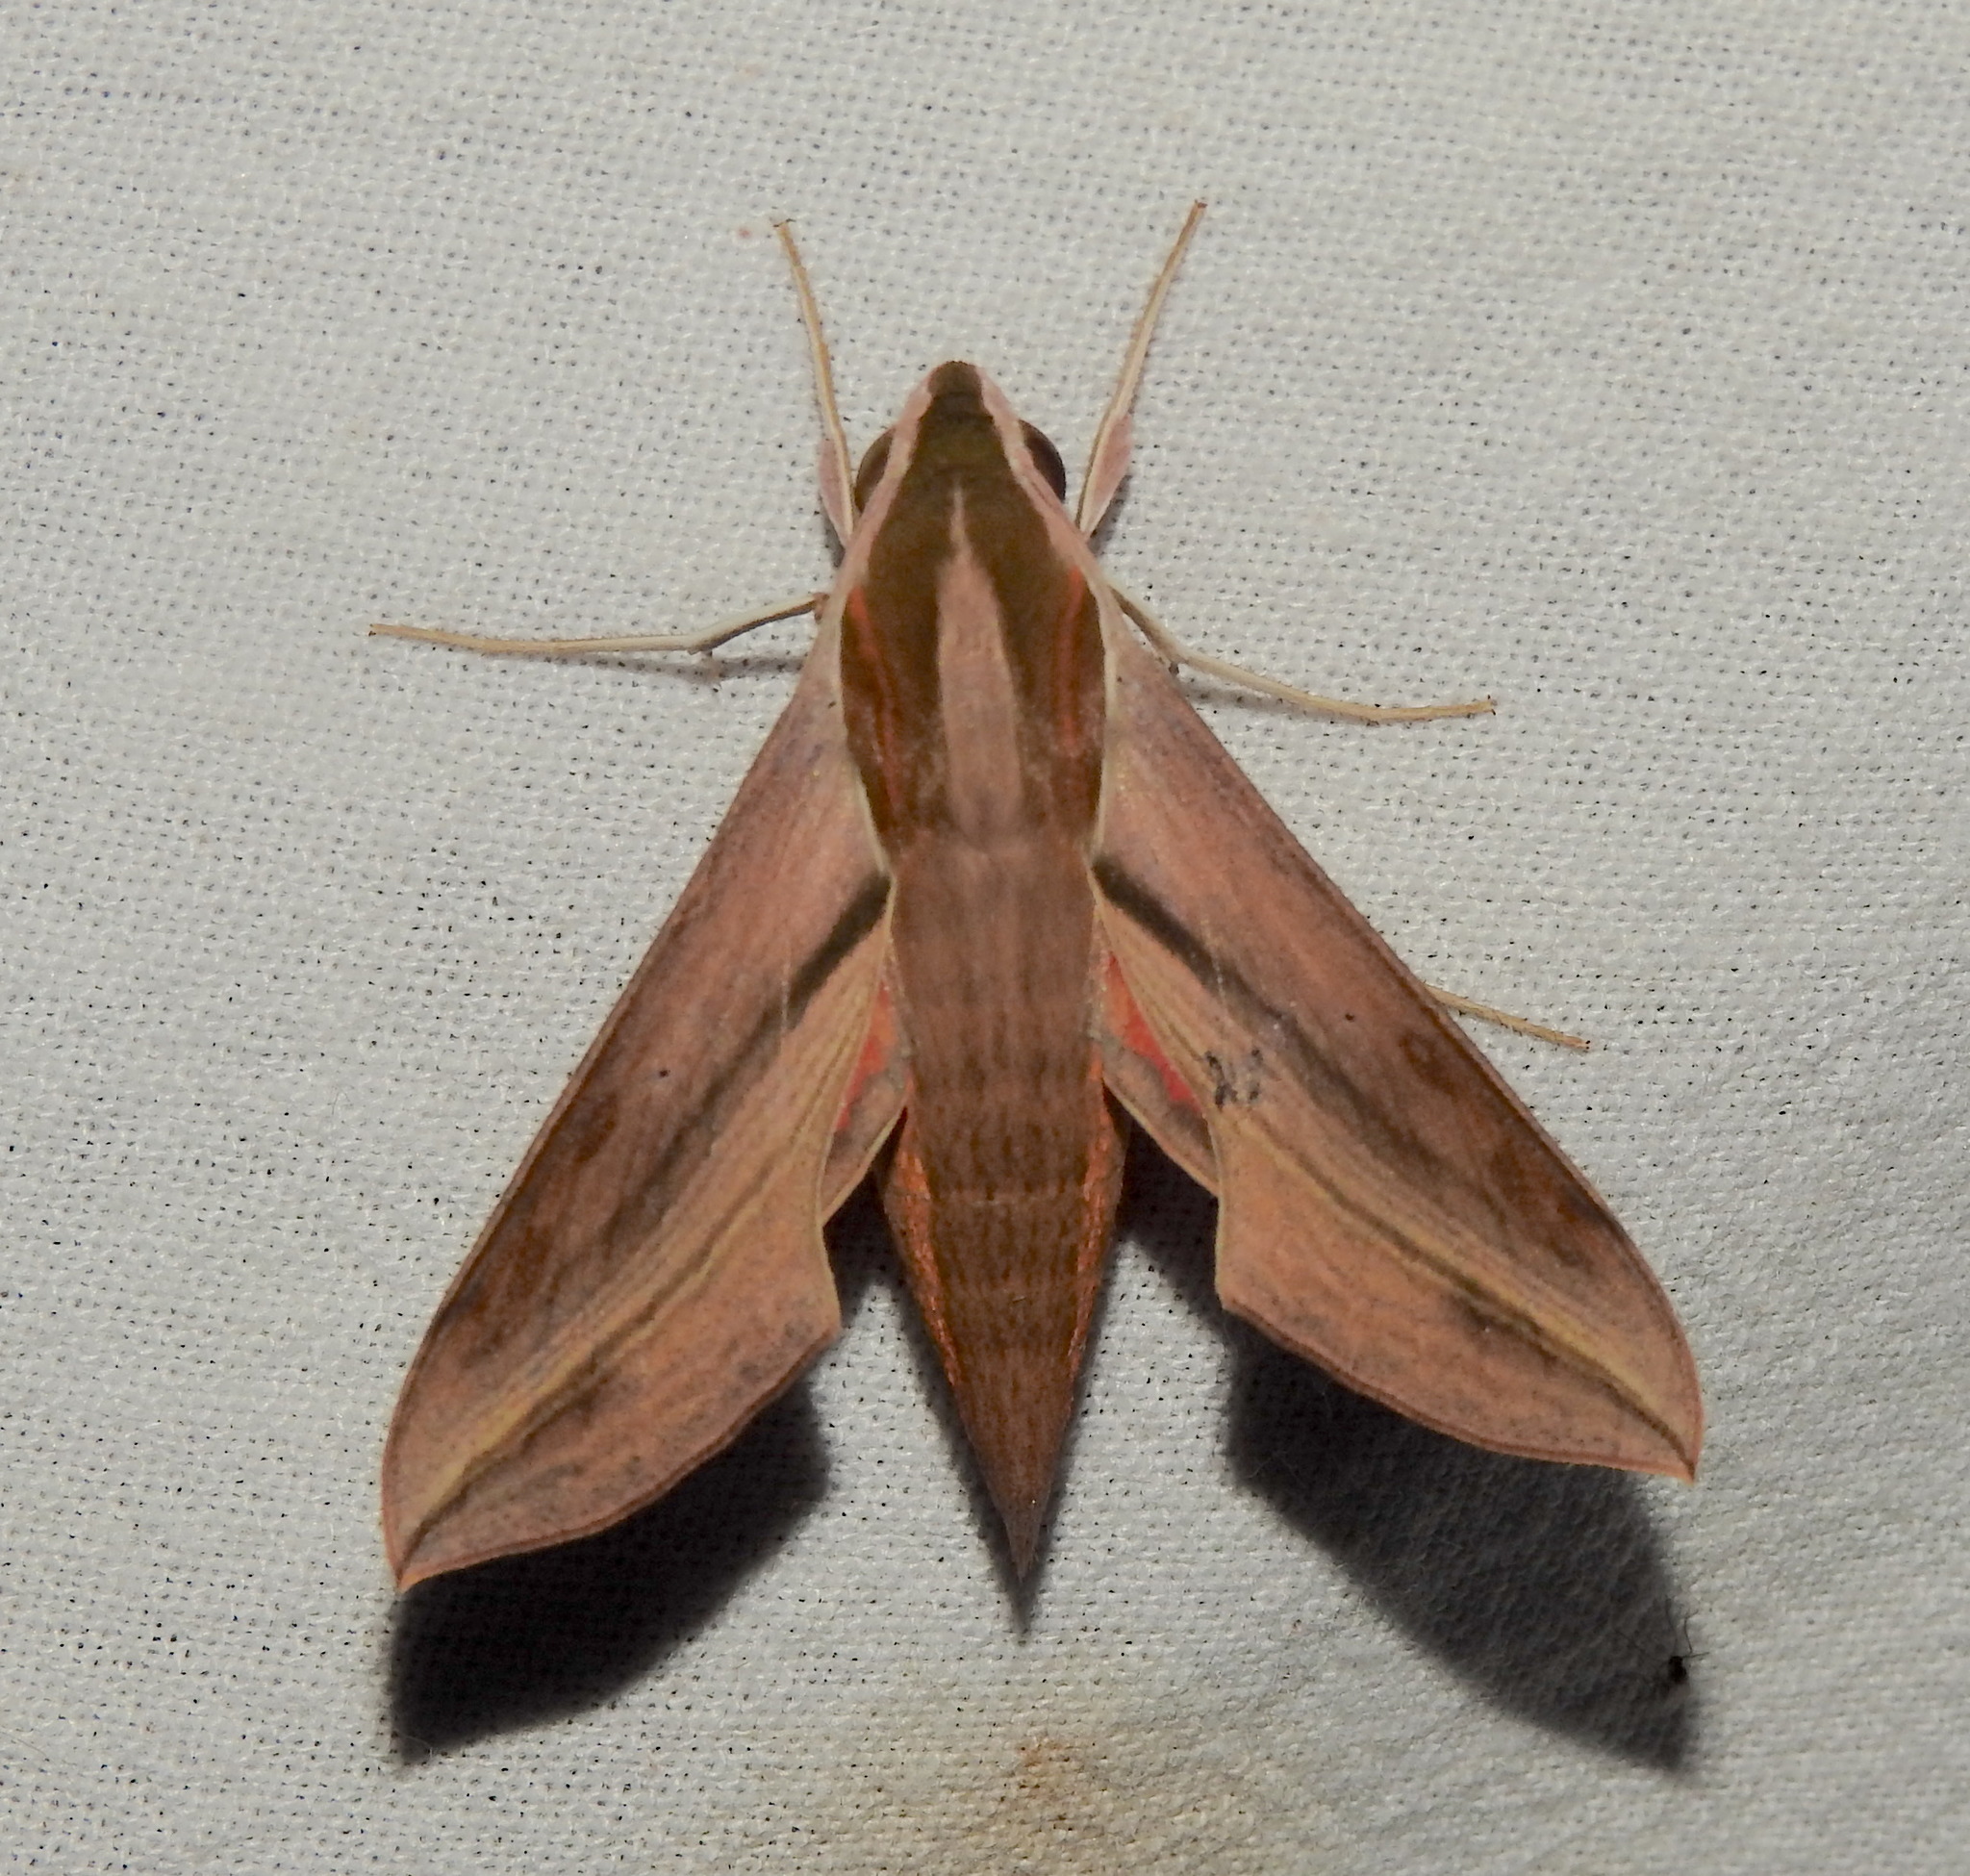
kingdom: Animalia
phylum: Arthropoda
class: Insecta
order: Lepidoptera
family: Sphingidae
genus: Hippotion
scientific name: Hippotion rosetta
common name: Vine hawk moth
